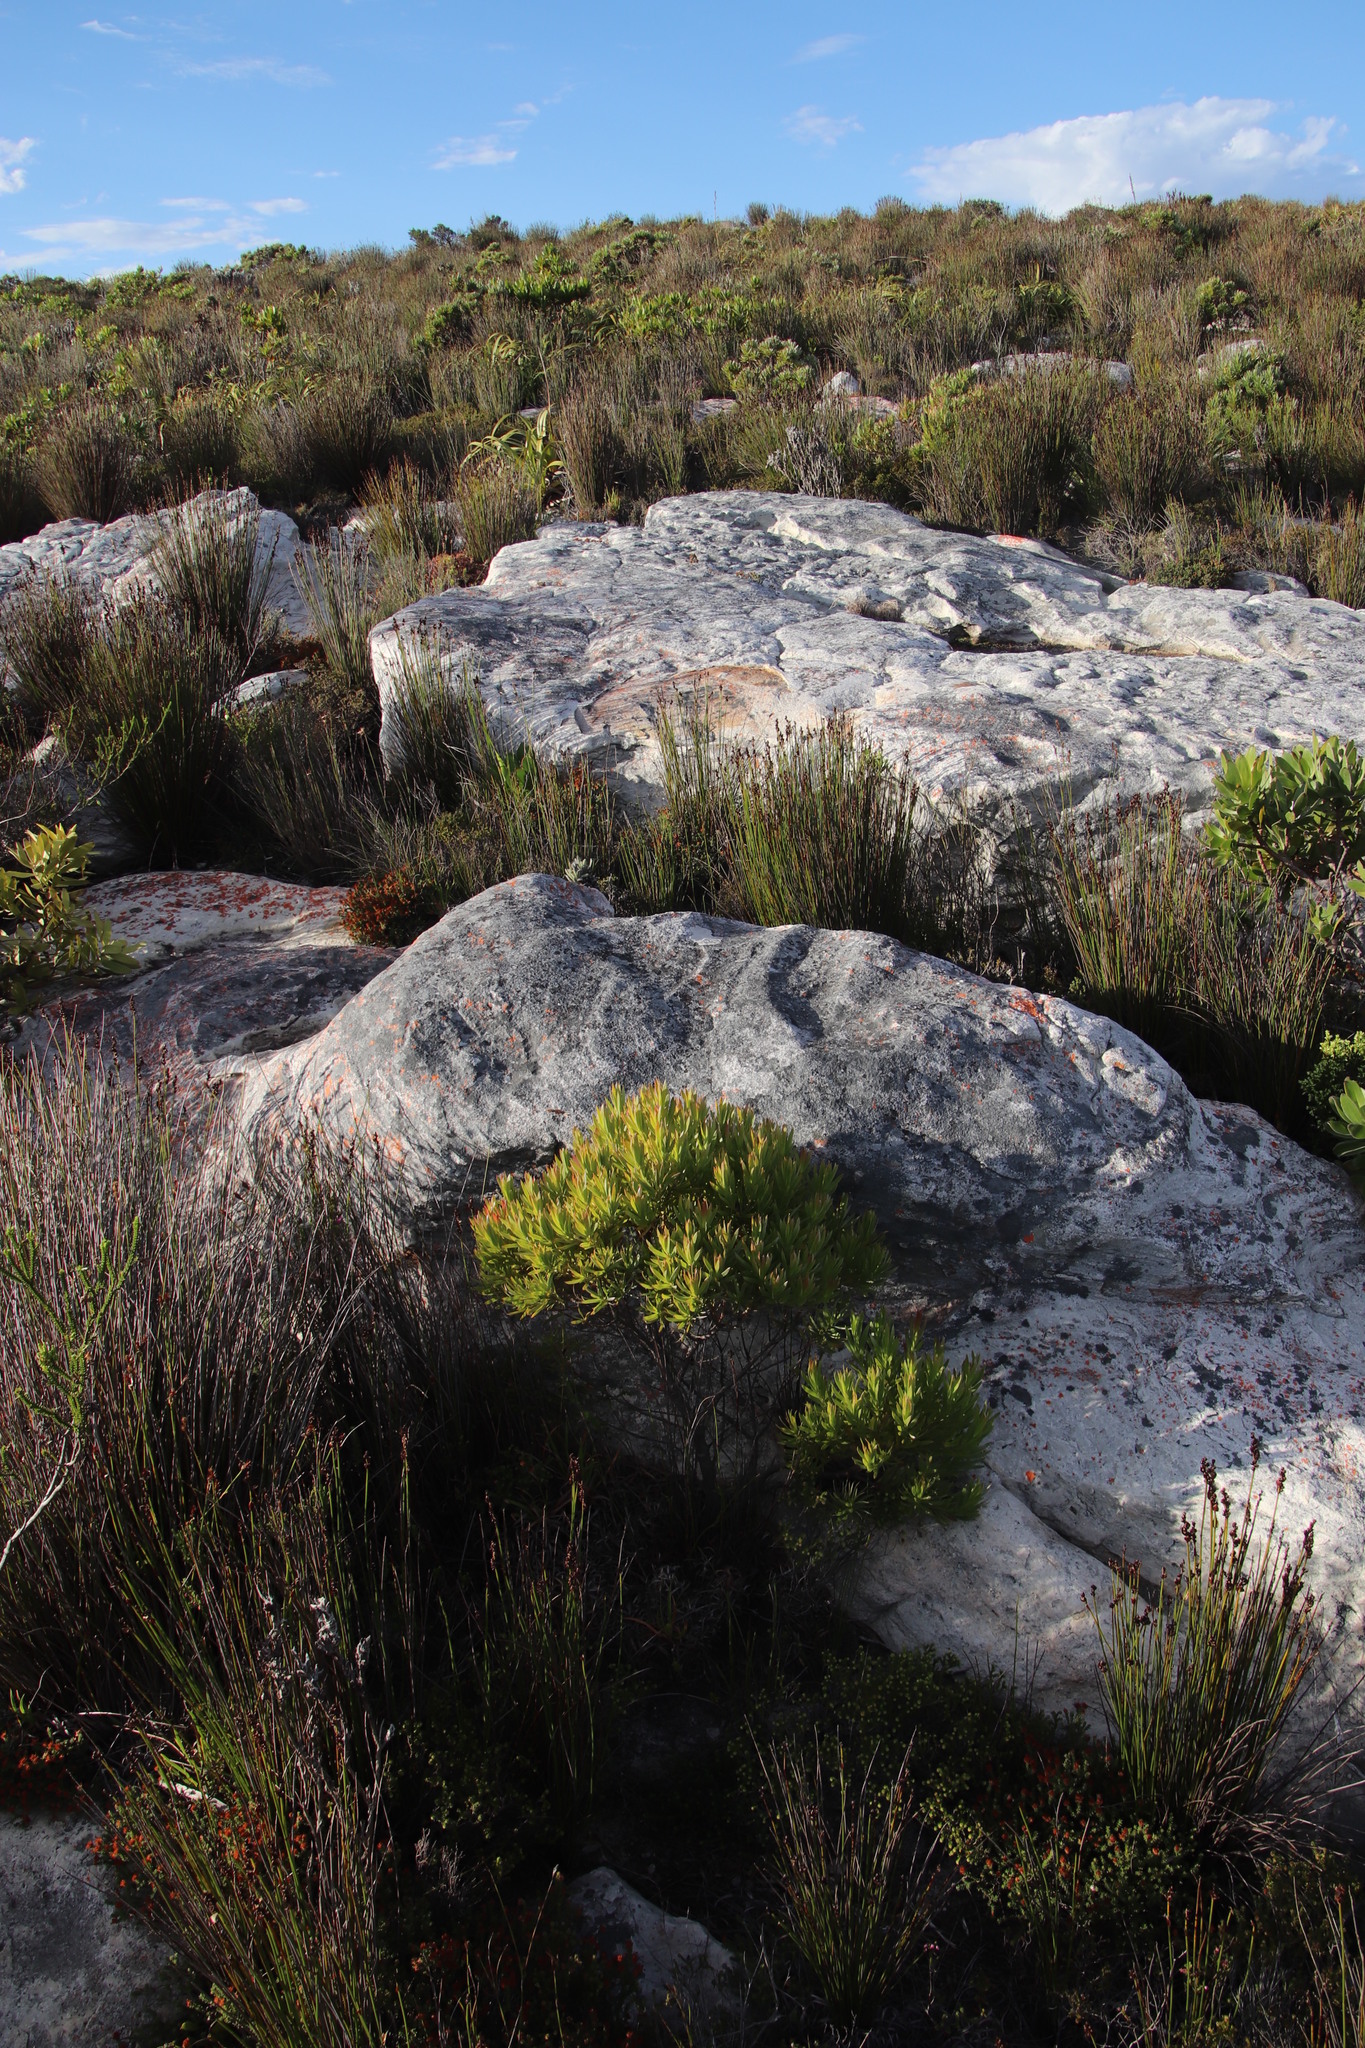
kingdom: Plantae
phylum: Tracheophyta
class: Magnoliopsida
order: Proteales
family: Proteaceae
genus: Leucadendron
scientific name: Leucadendron xanthoconus
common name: Sickle-leaf conebush
